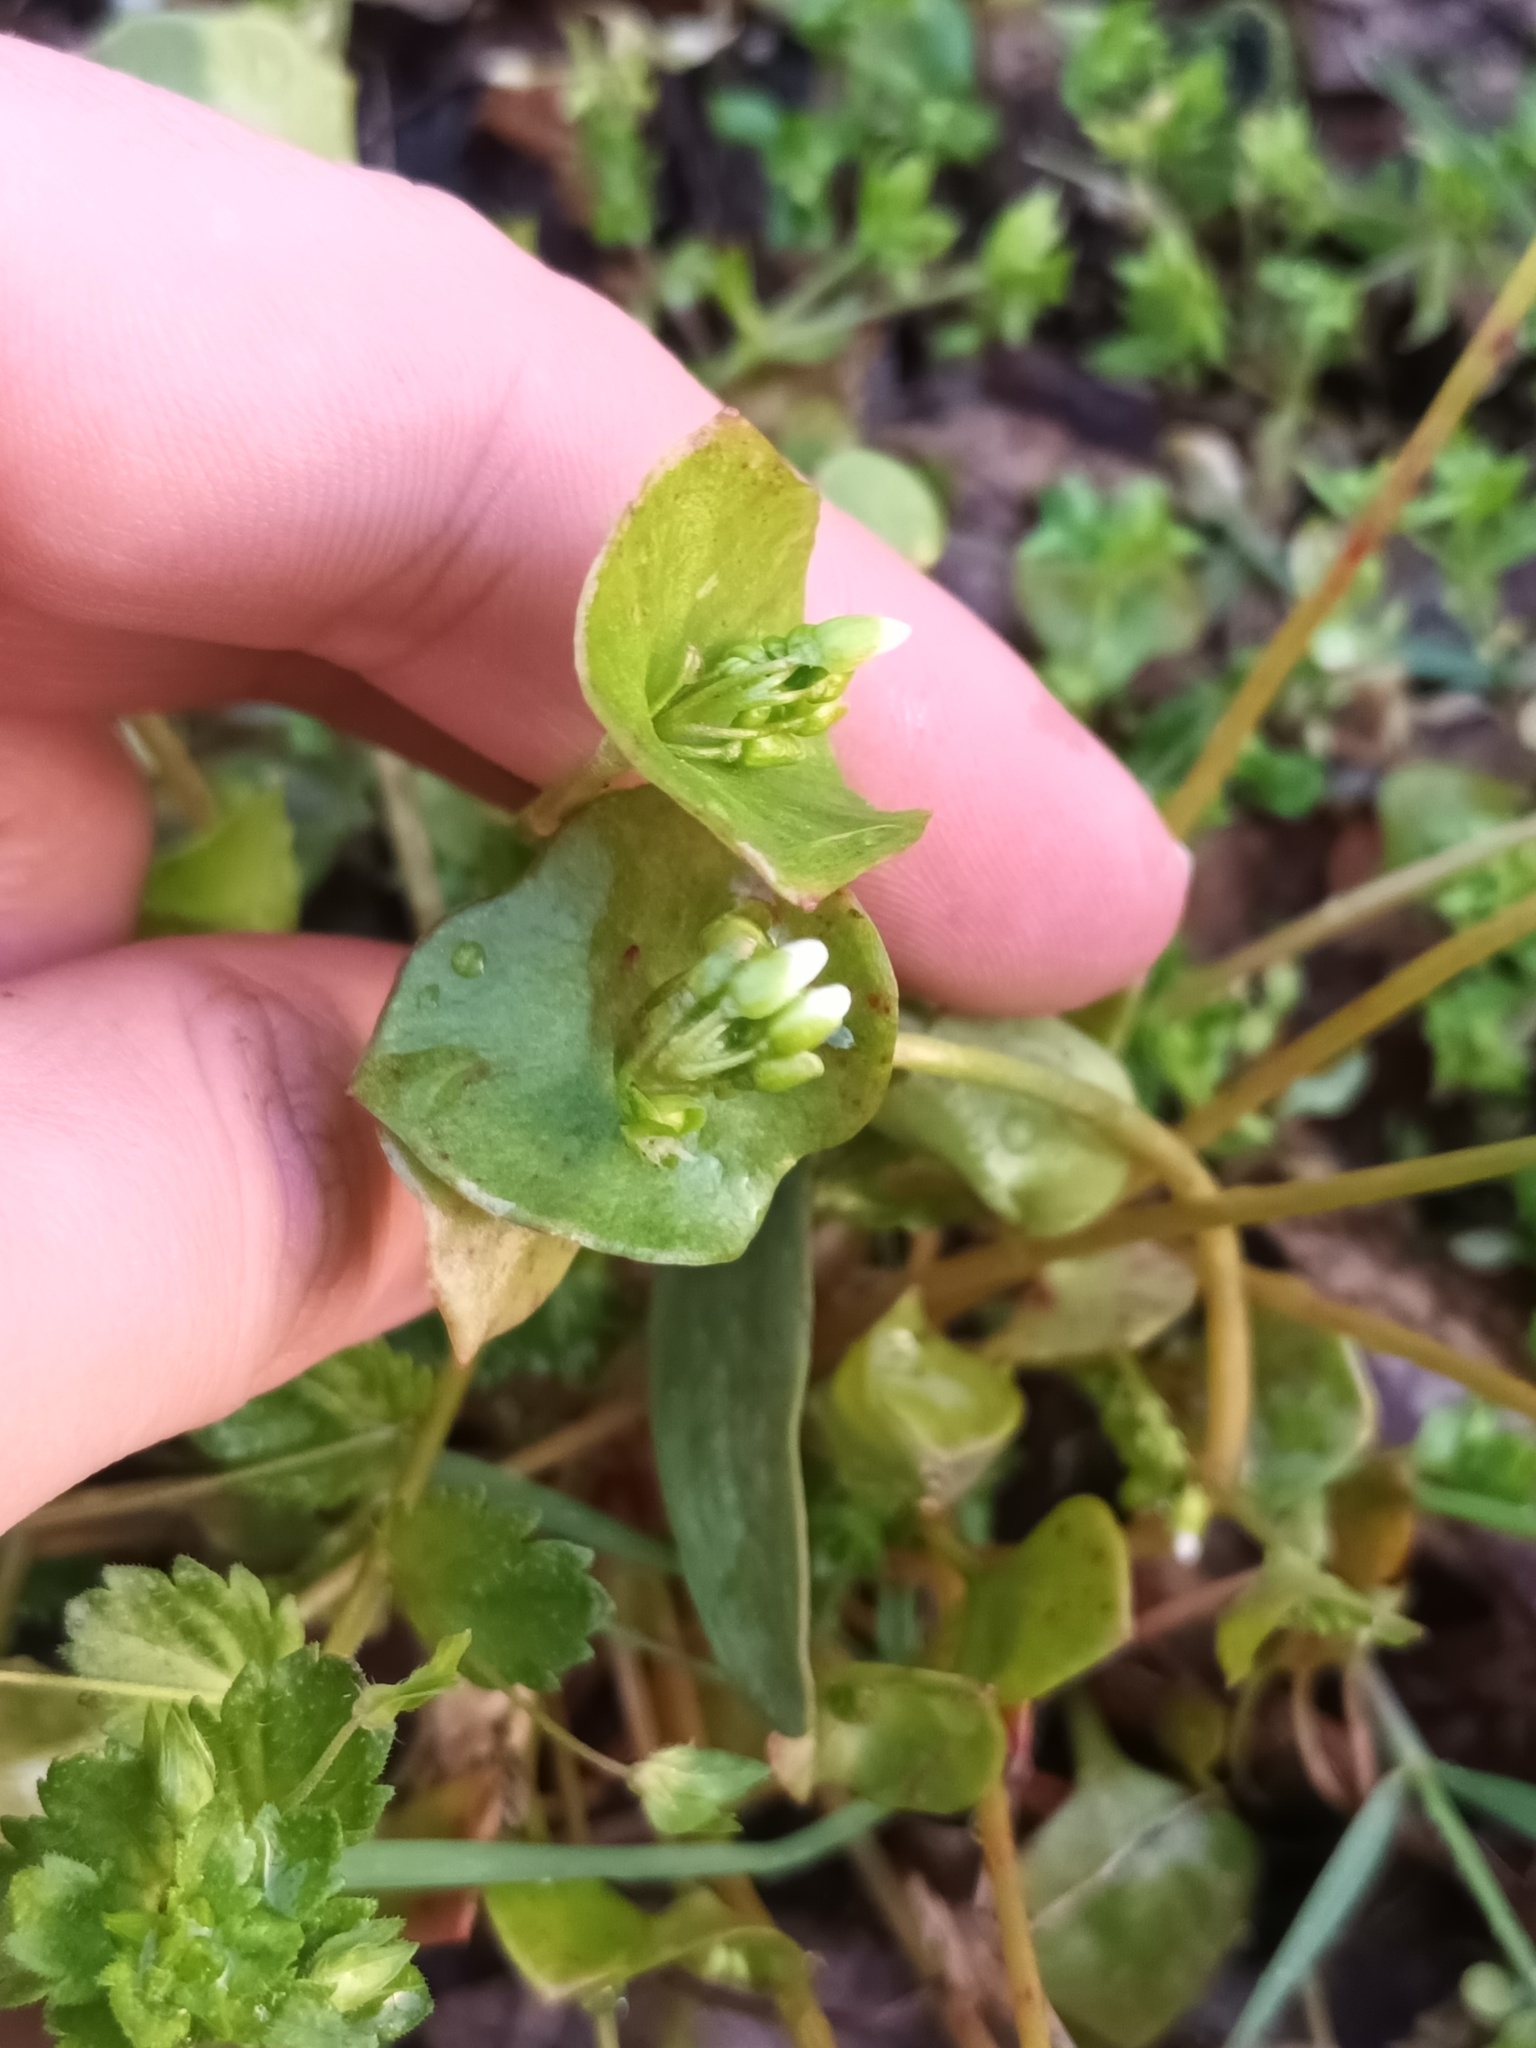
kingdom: Plantae
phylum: Tracheophyta
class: Magnoliopsida
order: Caryophyllales
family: Montiaceae
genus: Claytonia
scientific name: Claytonia perfoliata
